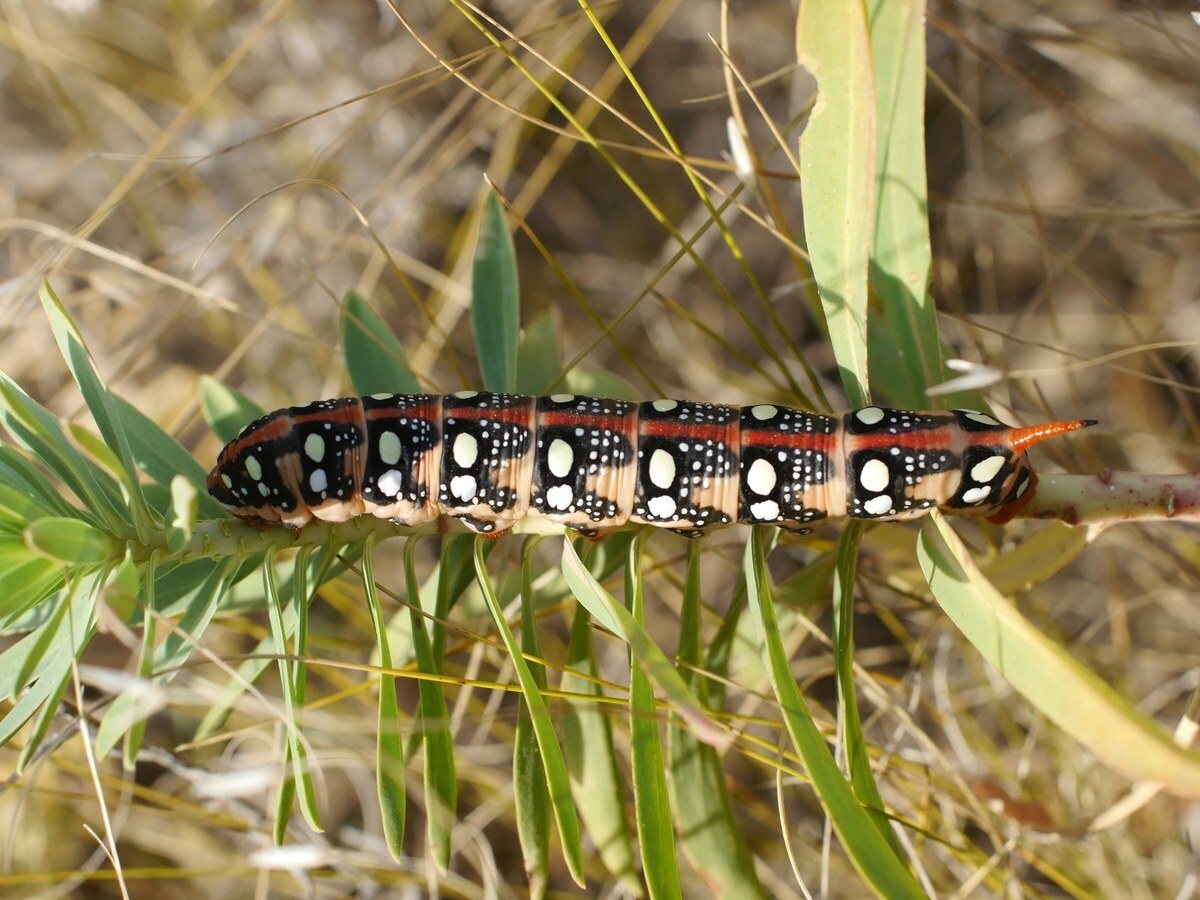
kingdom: Animalia
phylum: Arthropoda
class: Insecta
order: Lepidoptera
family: Sphingidae
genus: Hyles
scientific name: Hyles euphorbiae
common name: Spurge hawk-moth
